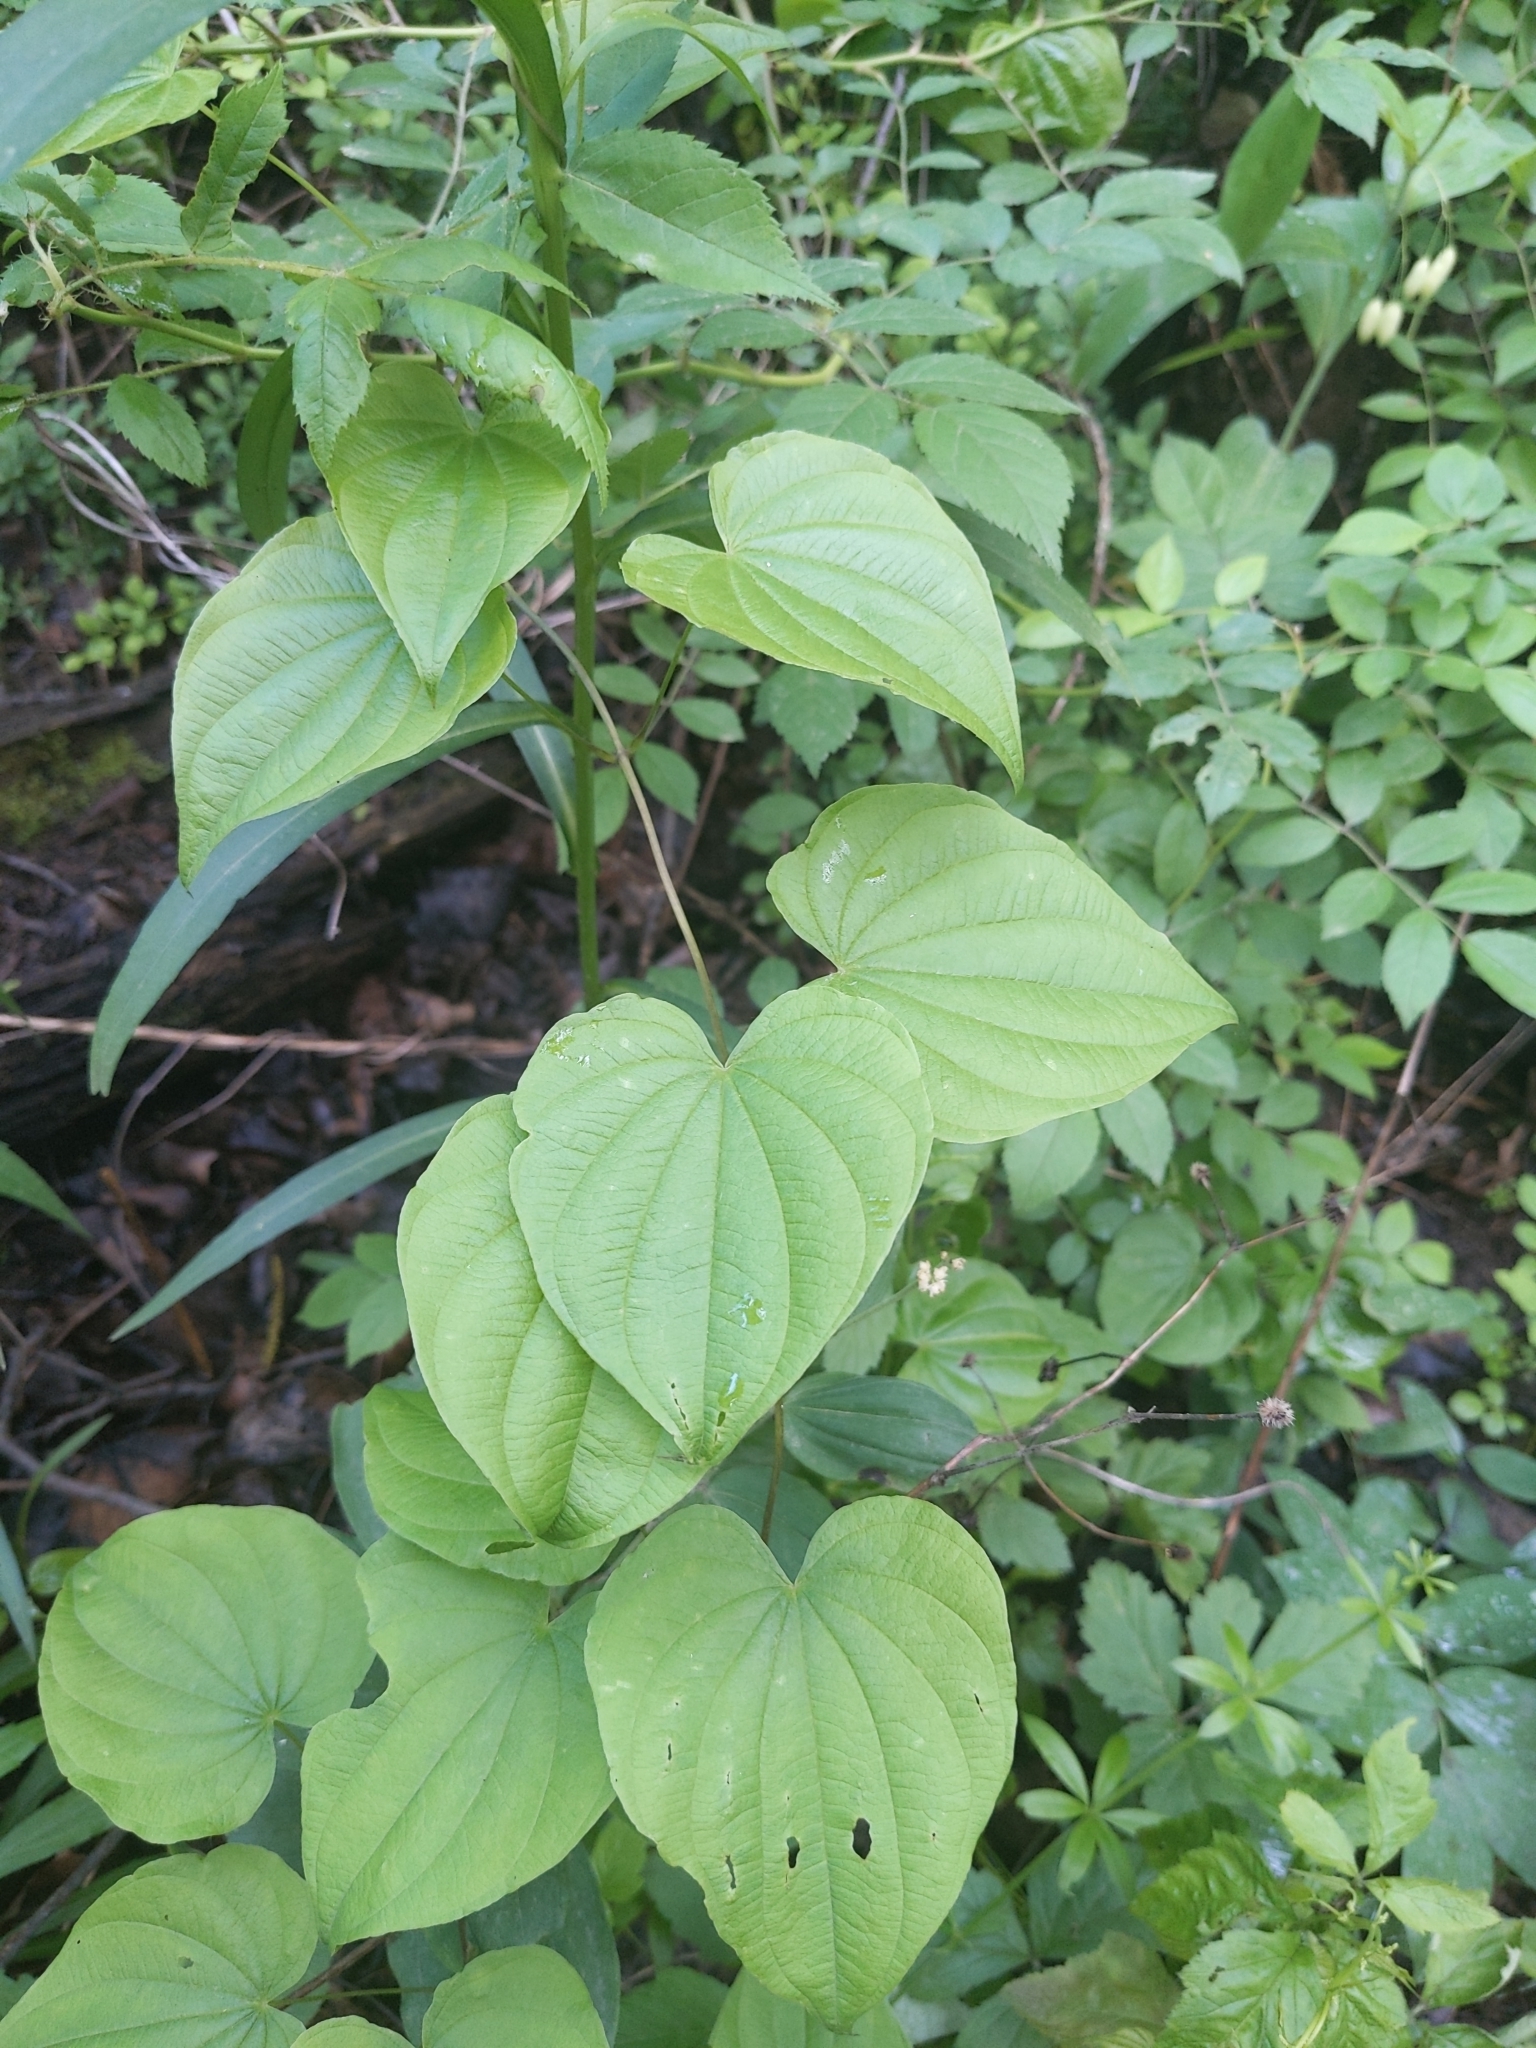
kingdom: Plantae
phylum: Tracheophyta
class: Liliopsida
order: Dioscoreales
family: Dioscoreaceae
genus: Dioscorea
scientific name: Dioscorea villosa
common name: Wild yam
